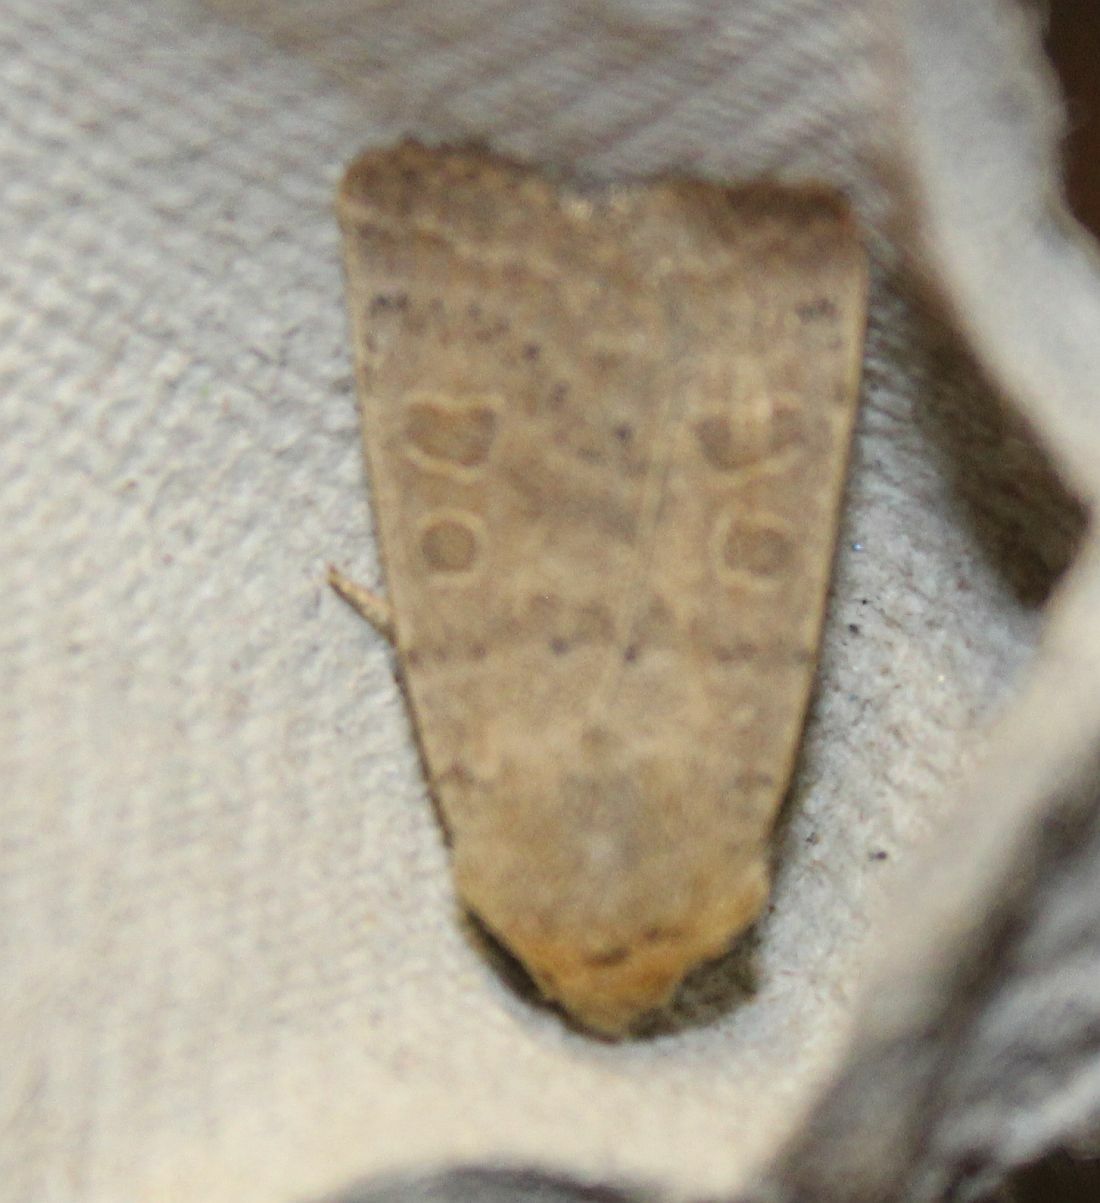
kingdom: Animalia
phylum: Arthropoda
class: Insecta
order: Lepidoptera
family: Noctuidae
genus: Hoplodrina
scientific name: Hoplodrina ambigua
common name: Vine's rustic
